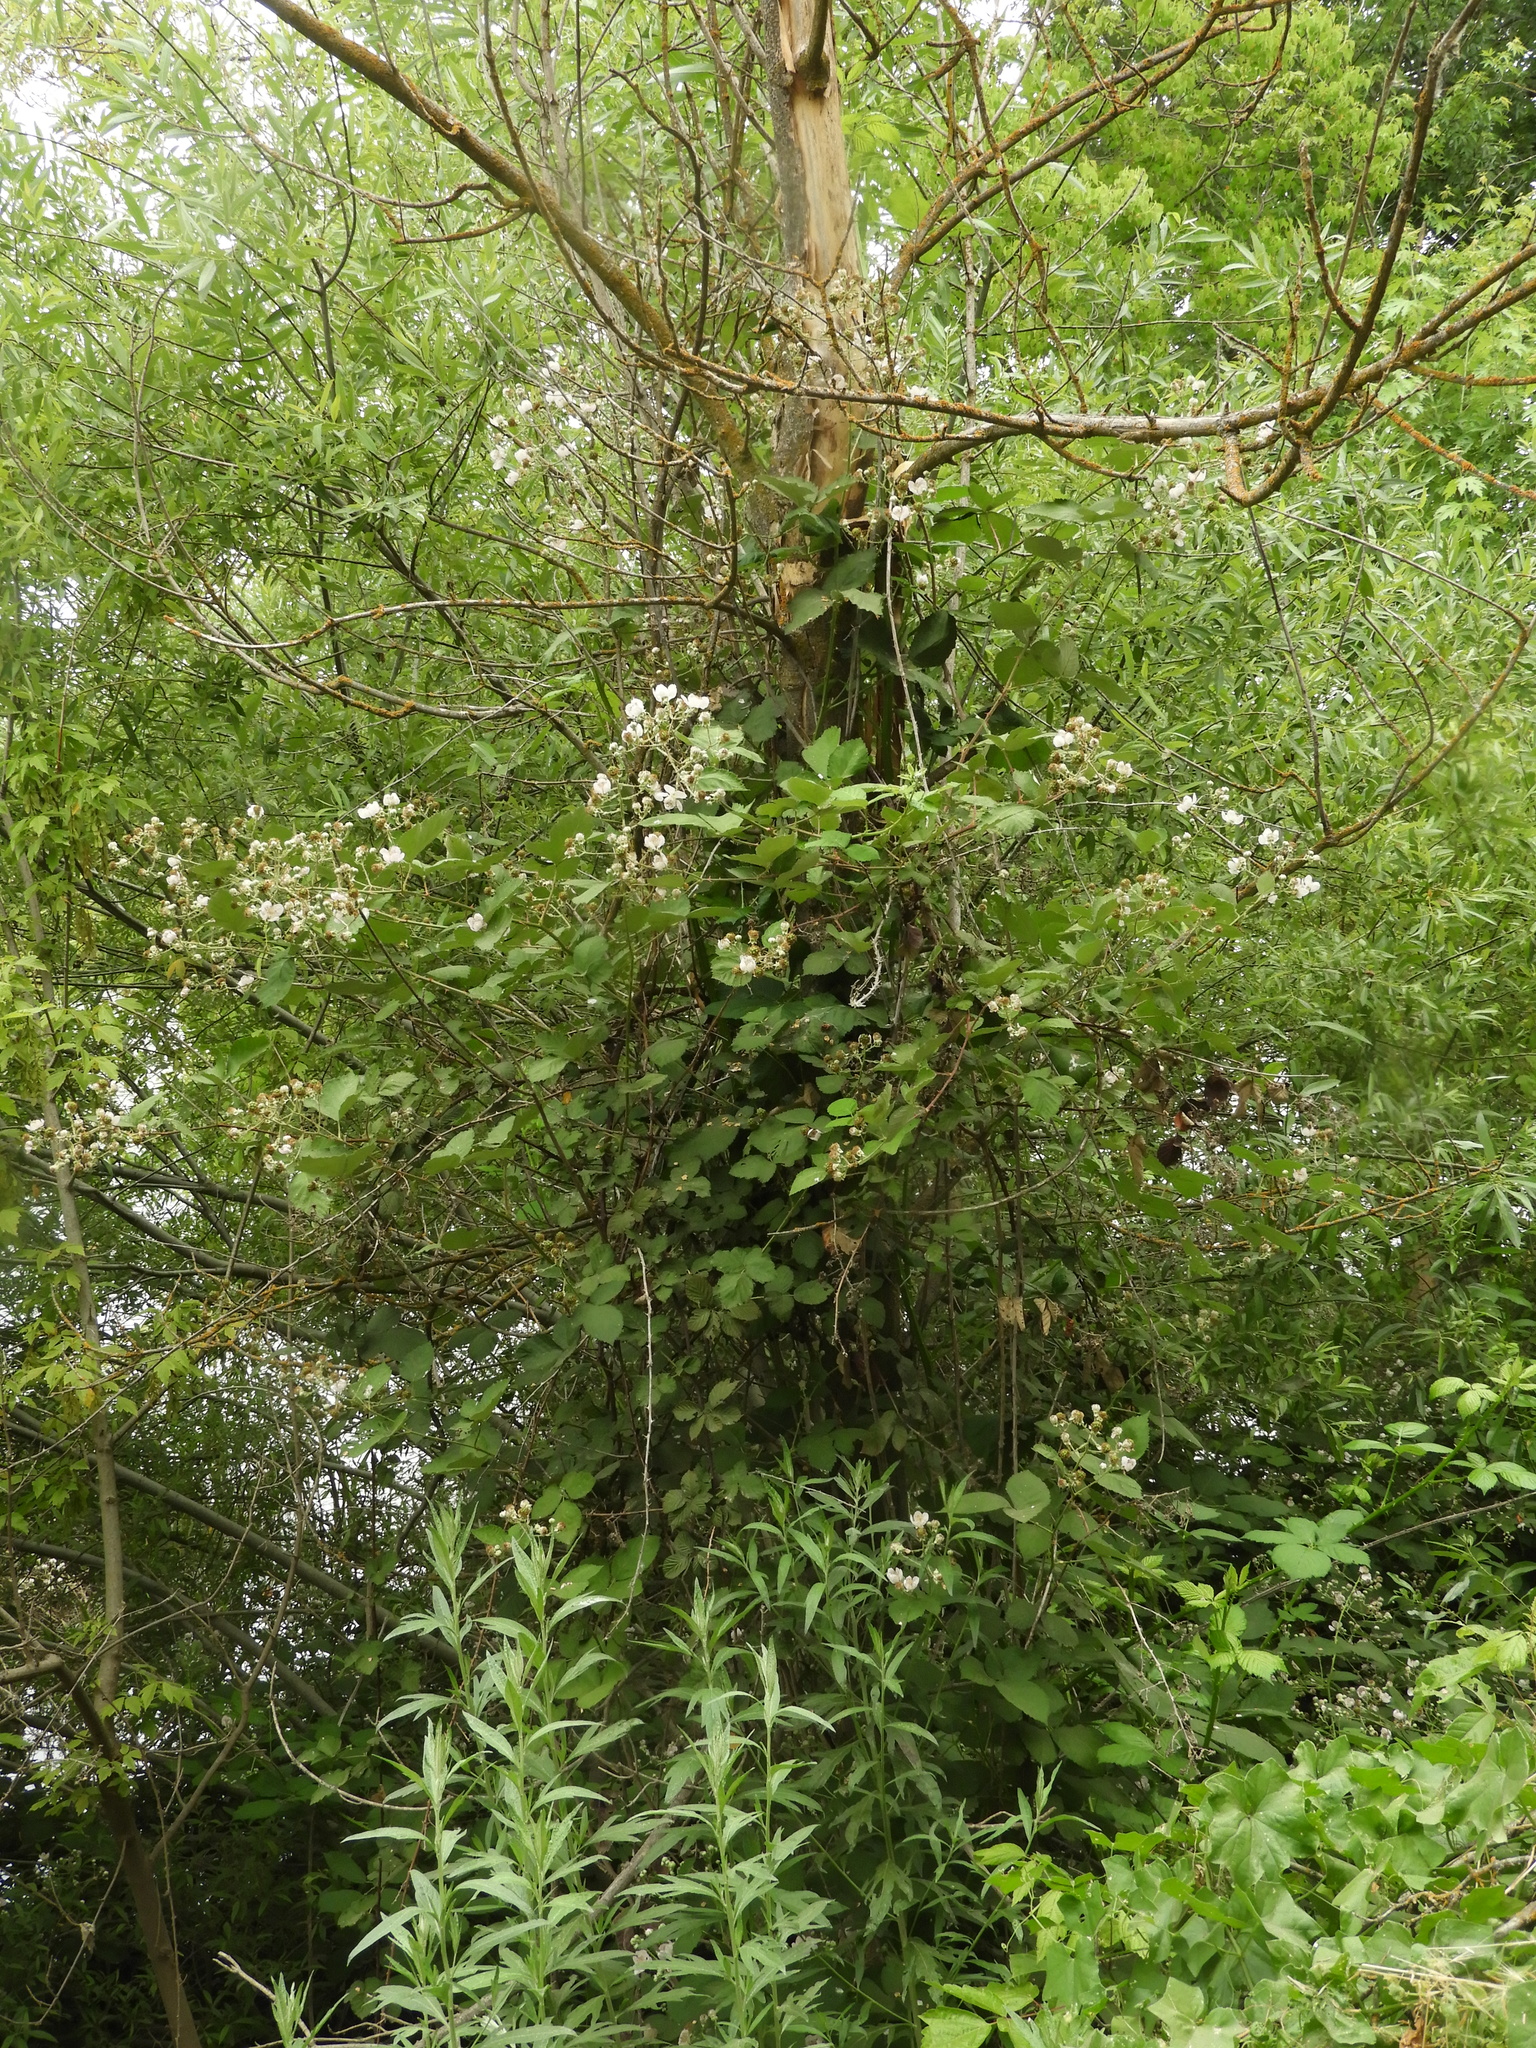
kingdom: Plantae
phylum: Tracheophyta
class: Magnoliopsida
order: Rosales
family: Rosaceae
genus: Rubus
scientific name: Rubus armeniacus
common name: Himalayan blackberry
